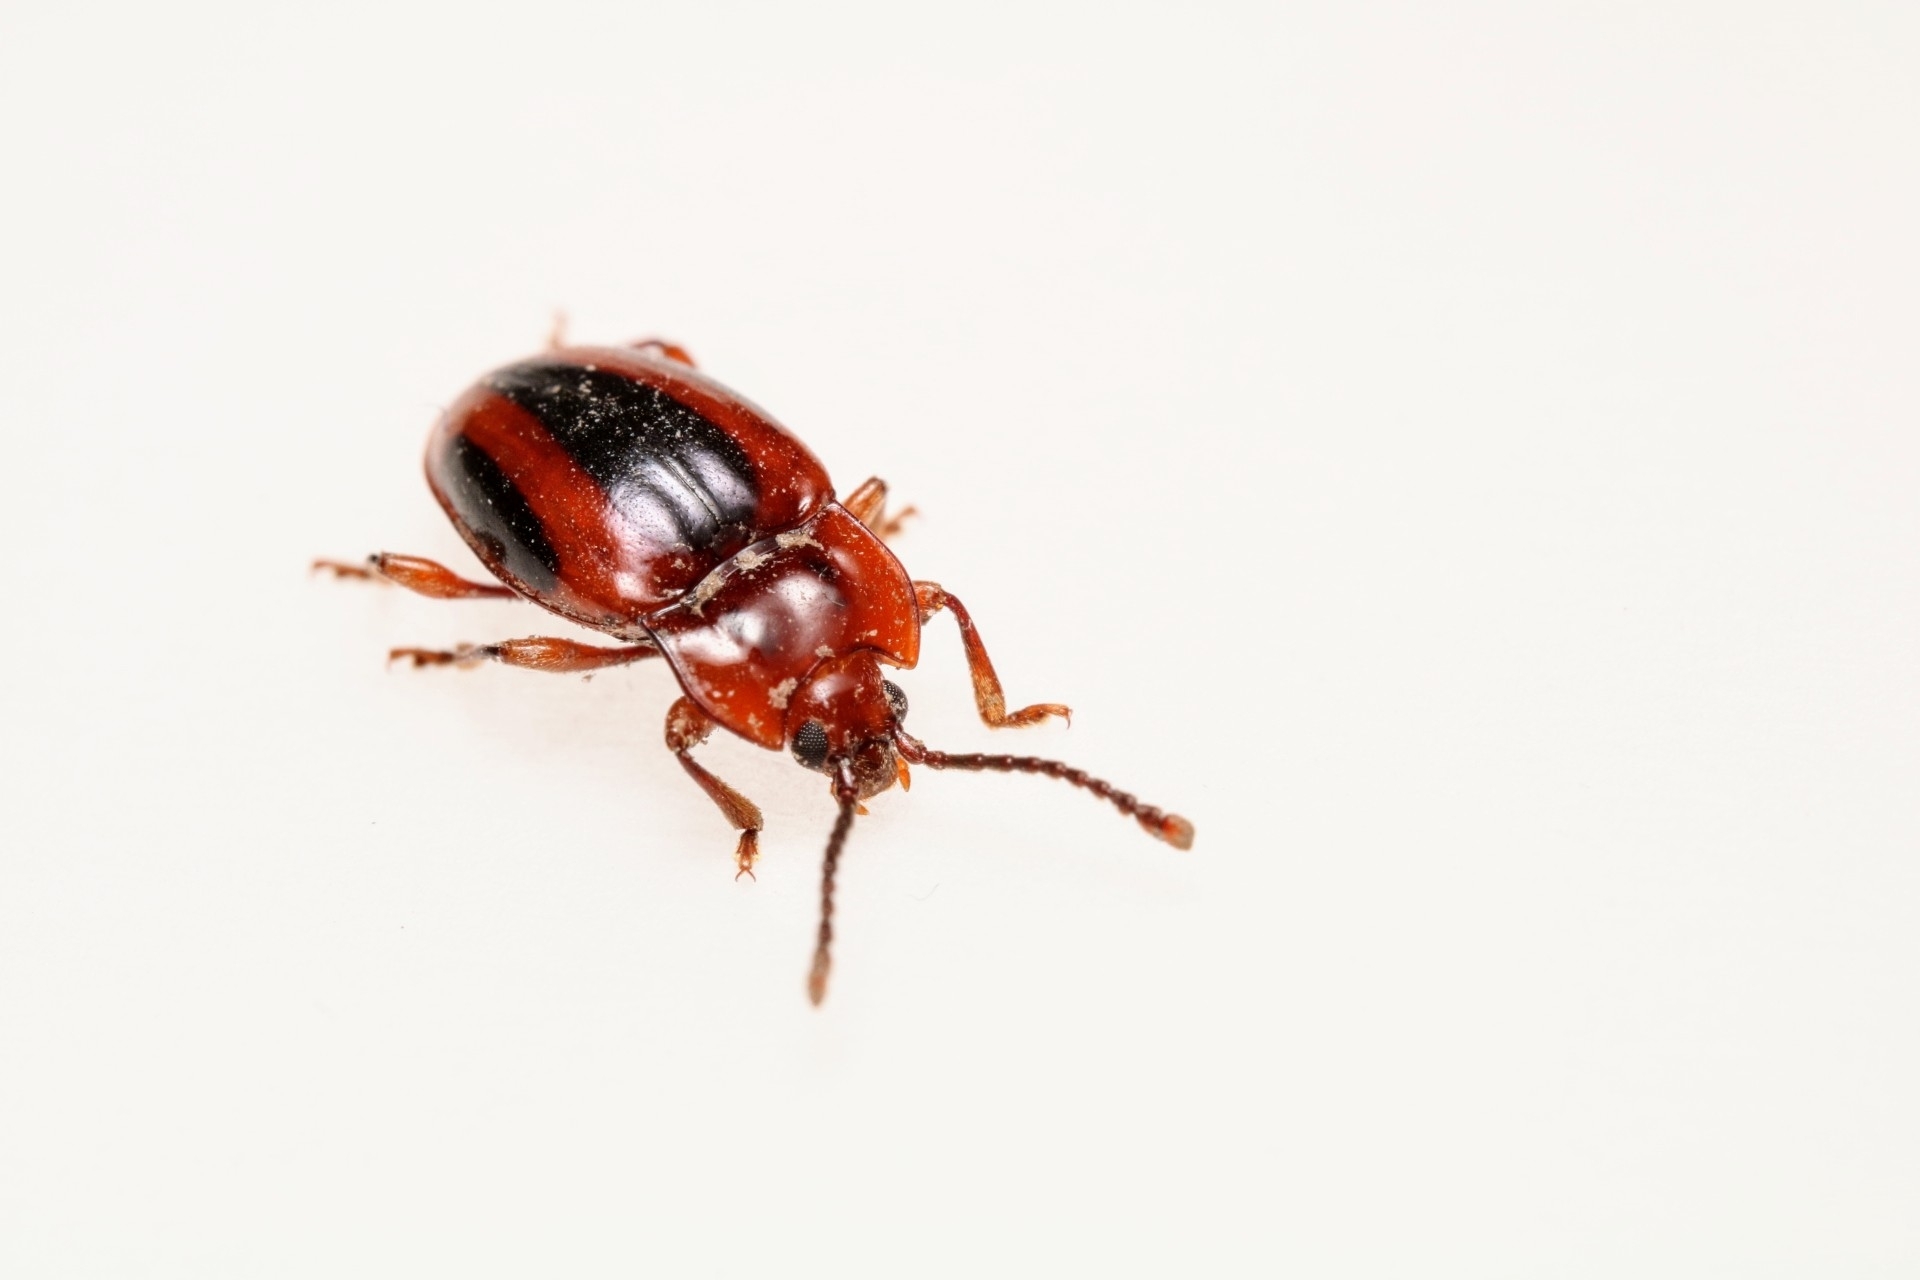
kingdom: Animalia
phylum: Arthropoda
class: Insecta
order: Coleoptera
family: Endomychidae
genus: Aphorista
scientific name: Aphorista vittata
